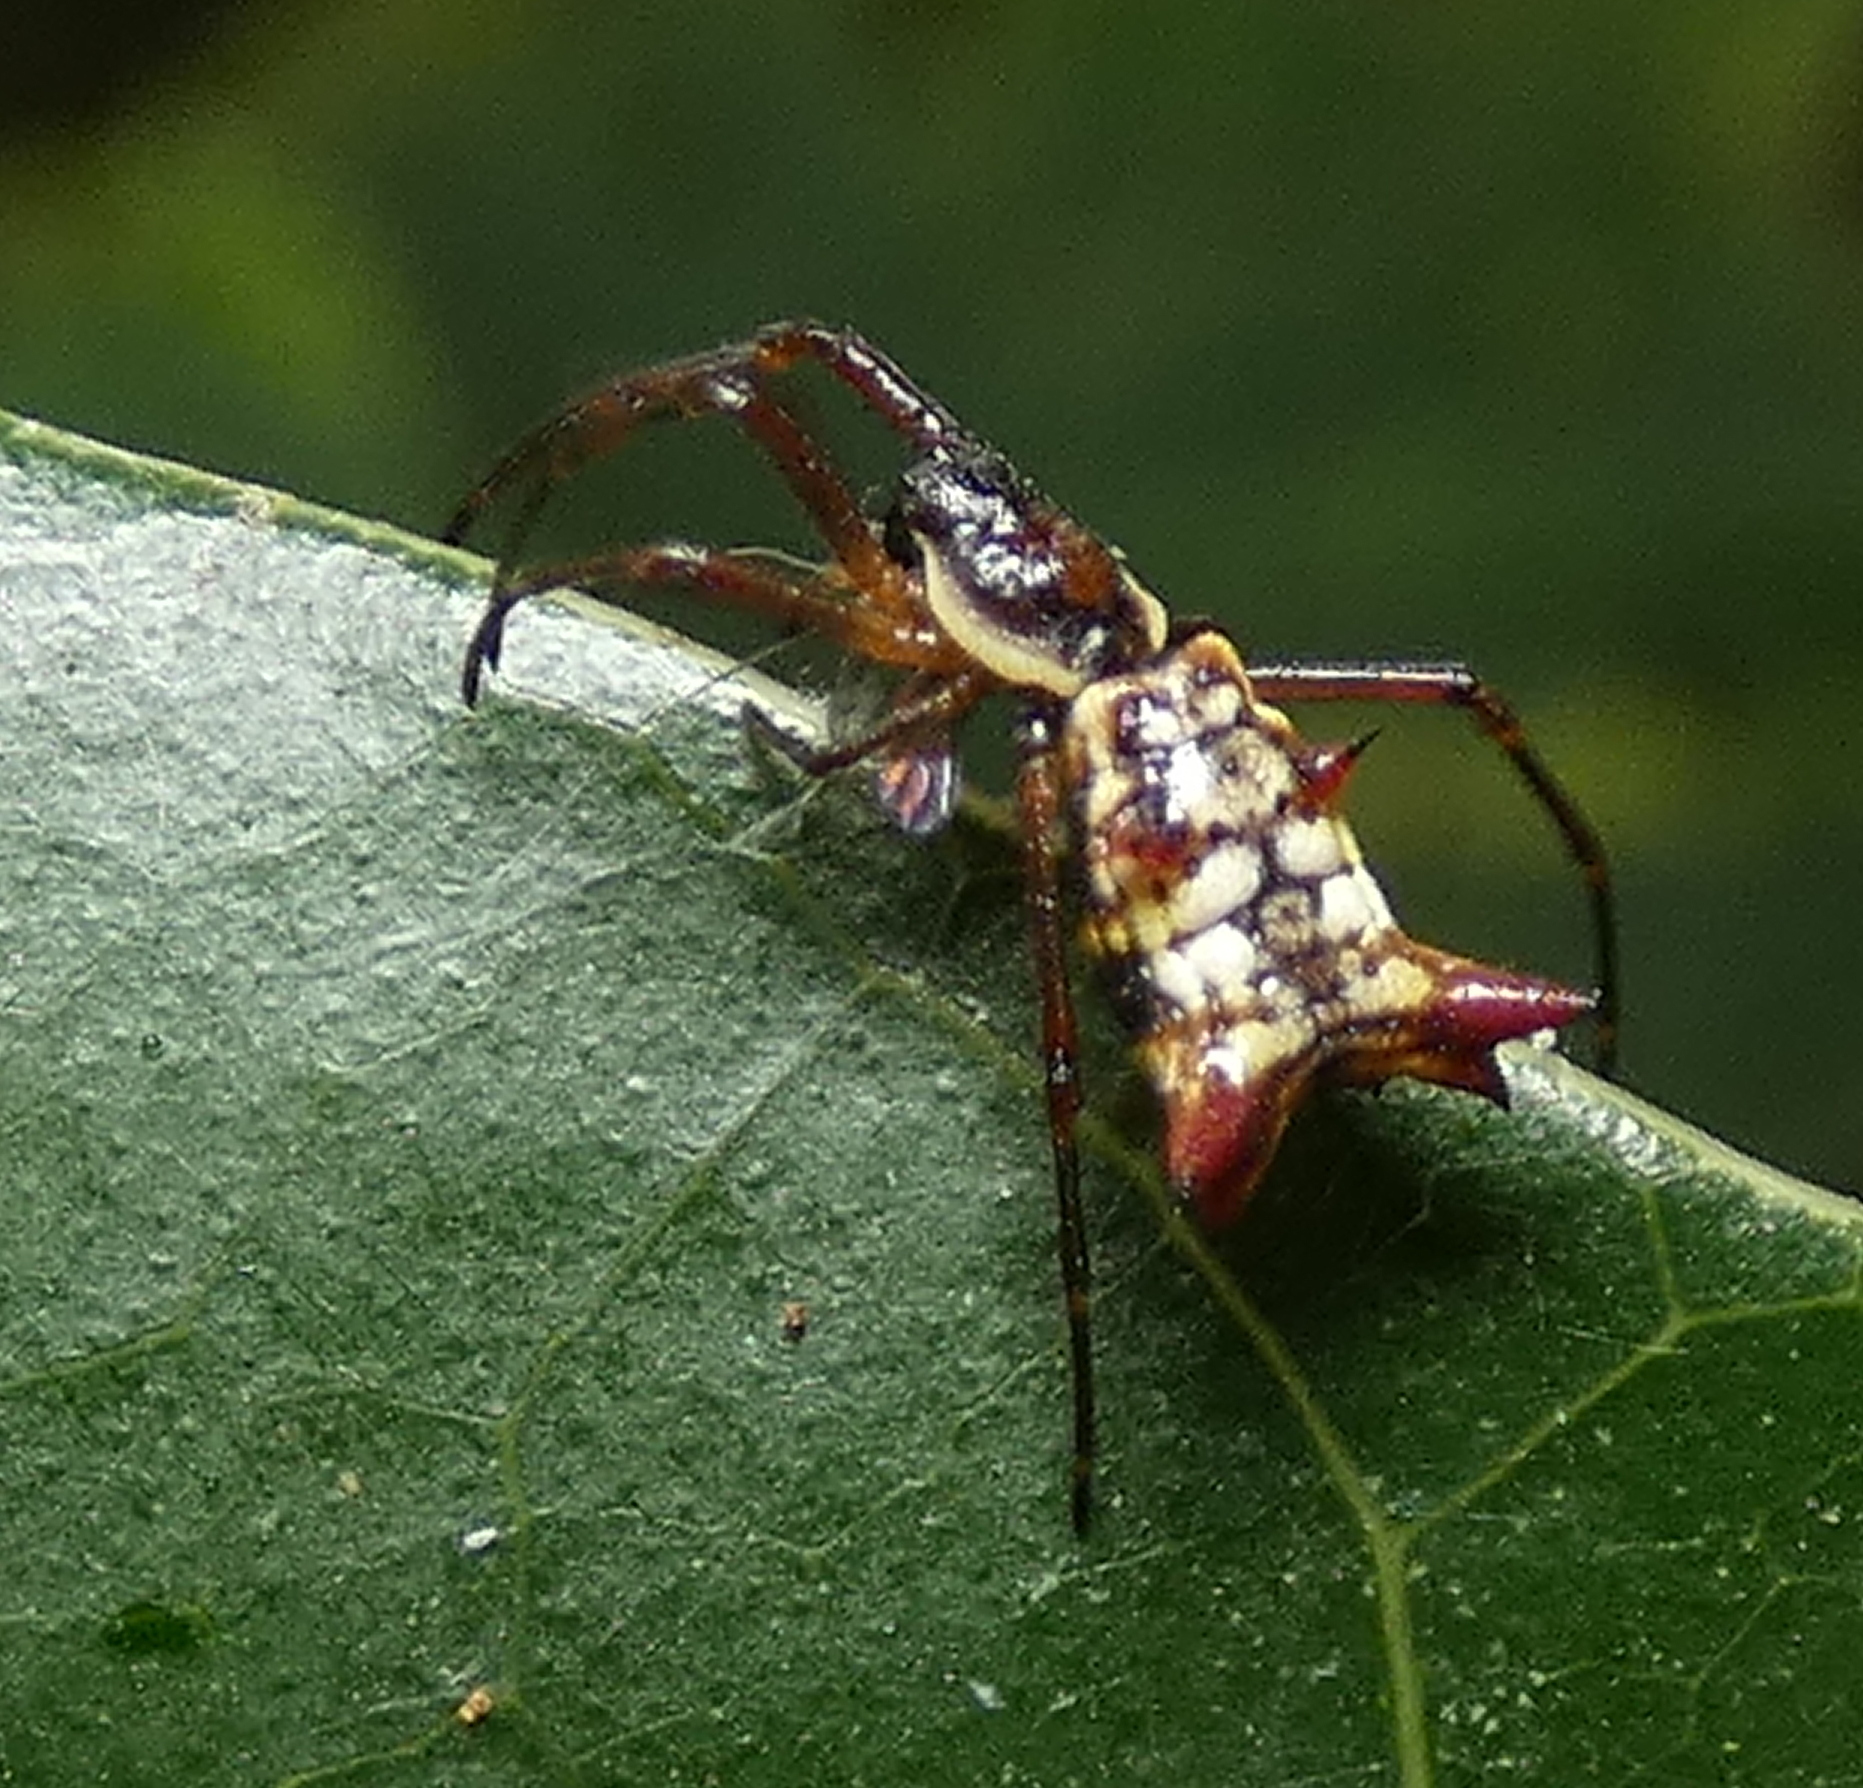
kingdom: Animalia
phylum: Arthropoda
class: Arachnida
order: Araneae
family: Araneidae
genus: Micrathena
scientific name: Micrathena fissispina
